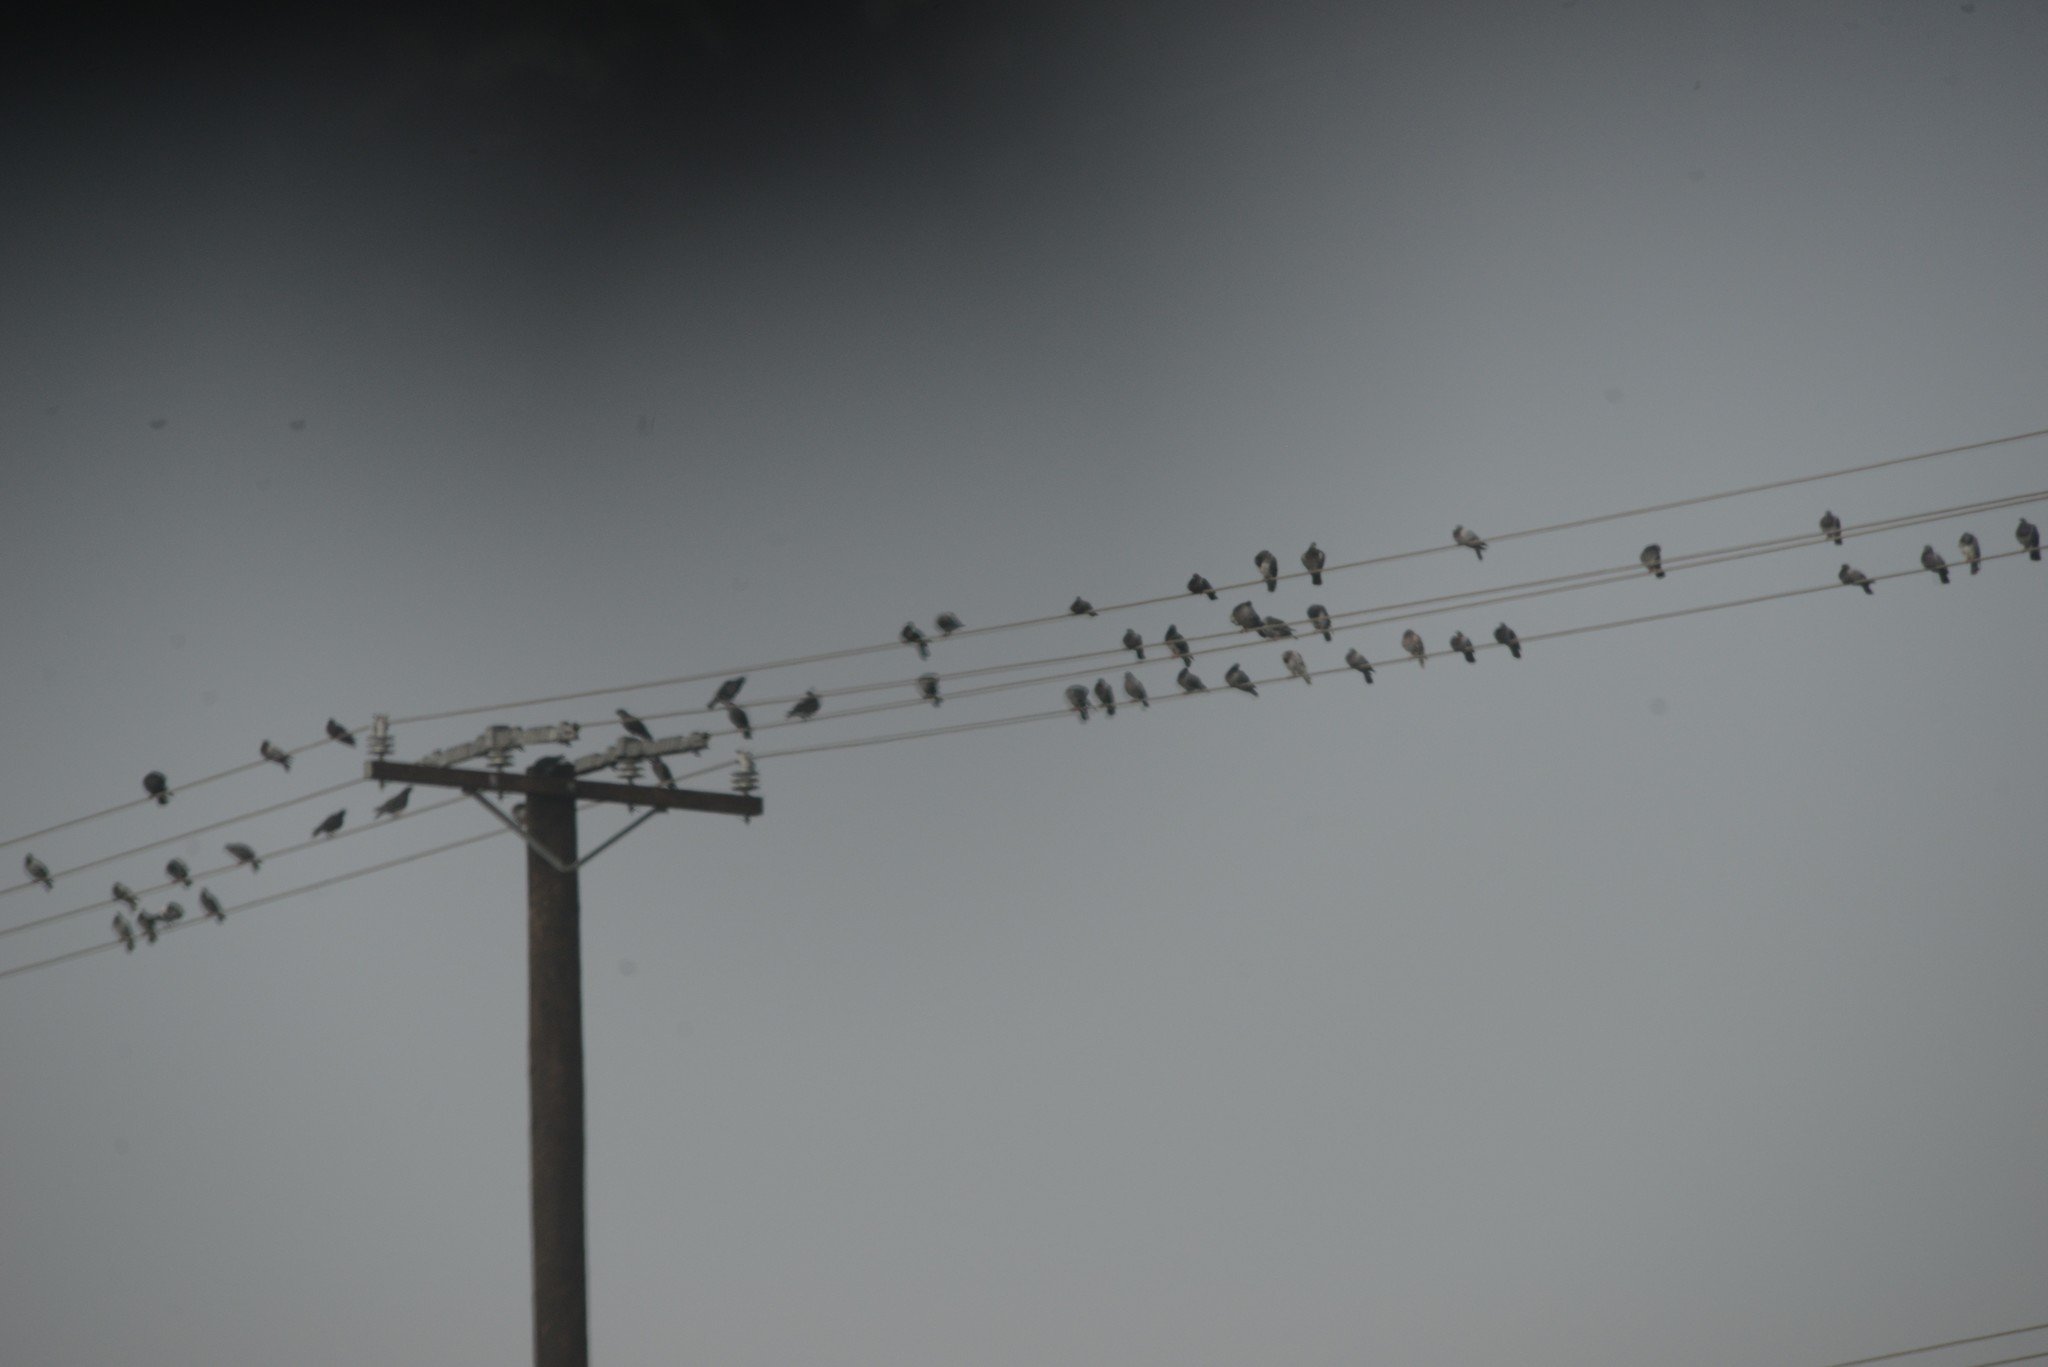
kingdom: Animalia
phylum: Chordata
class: Aves
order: Columbiformes
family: Columbidae
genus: Columba
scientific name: Columba livia
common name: Rock pigeon
